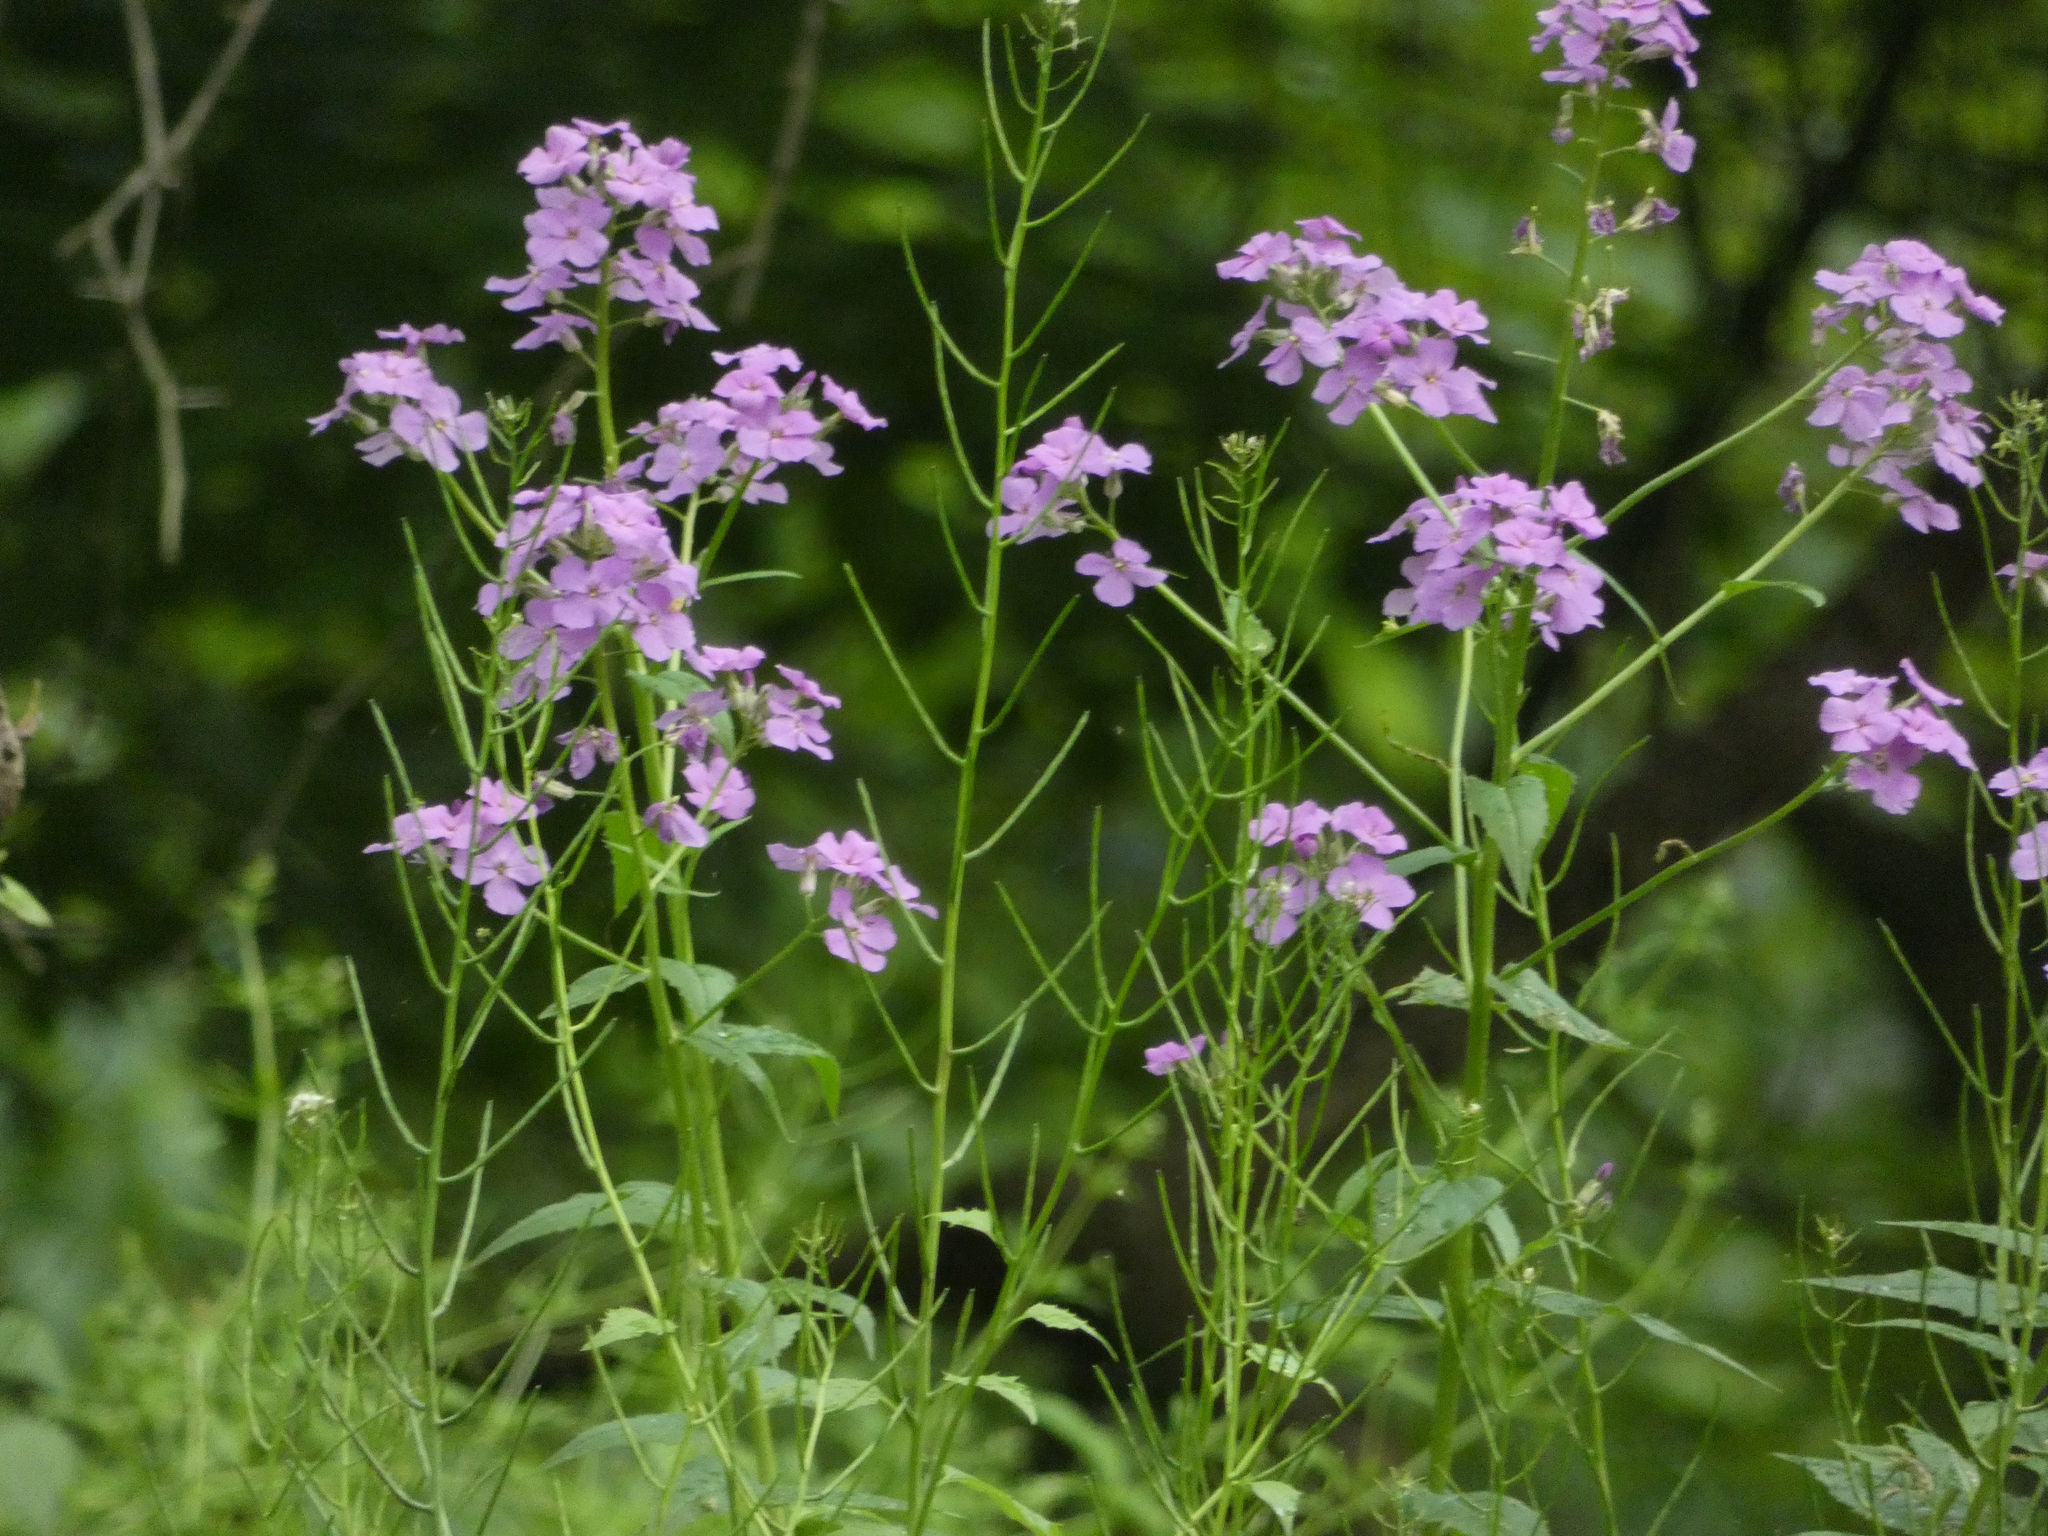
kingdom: Plantae
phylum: Tracheophyta
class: Magnoliopsida
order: Brassicales
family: Brassicaceae
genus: Hesperis
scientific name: Hesperis matronalis
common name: Dame's-violet
